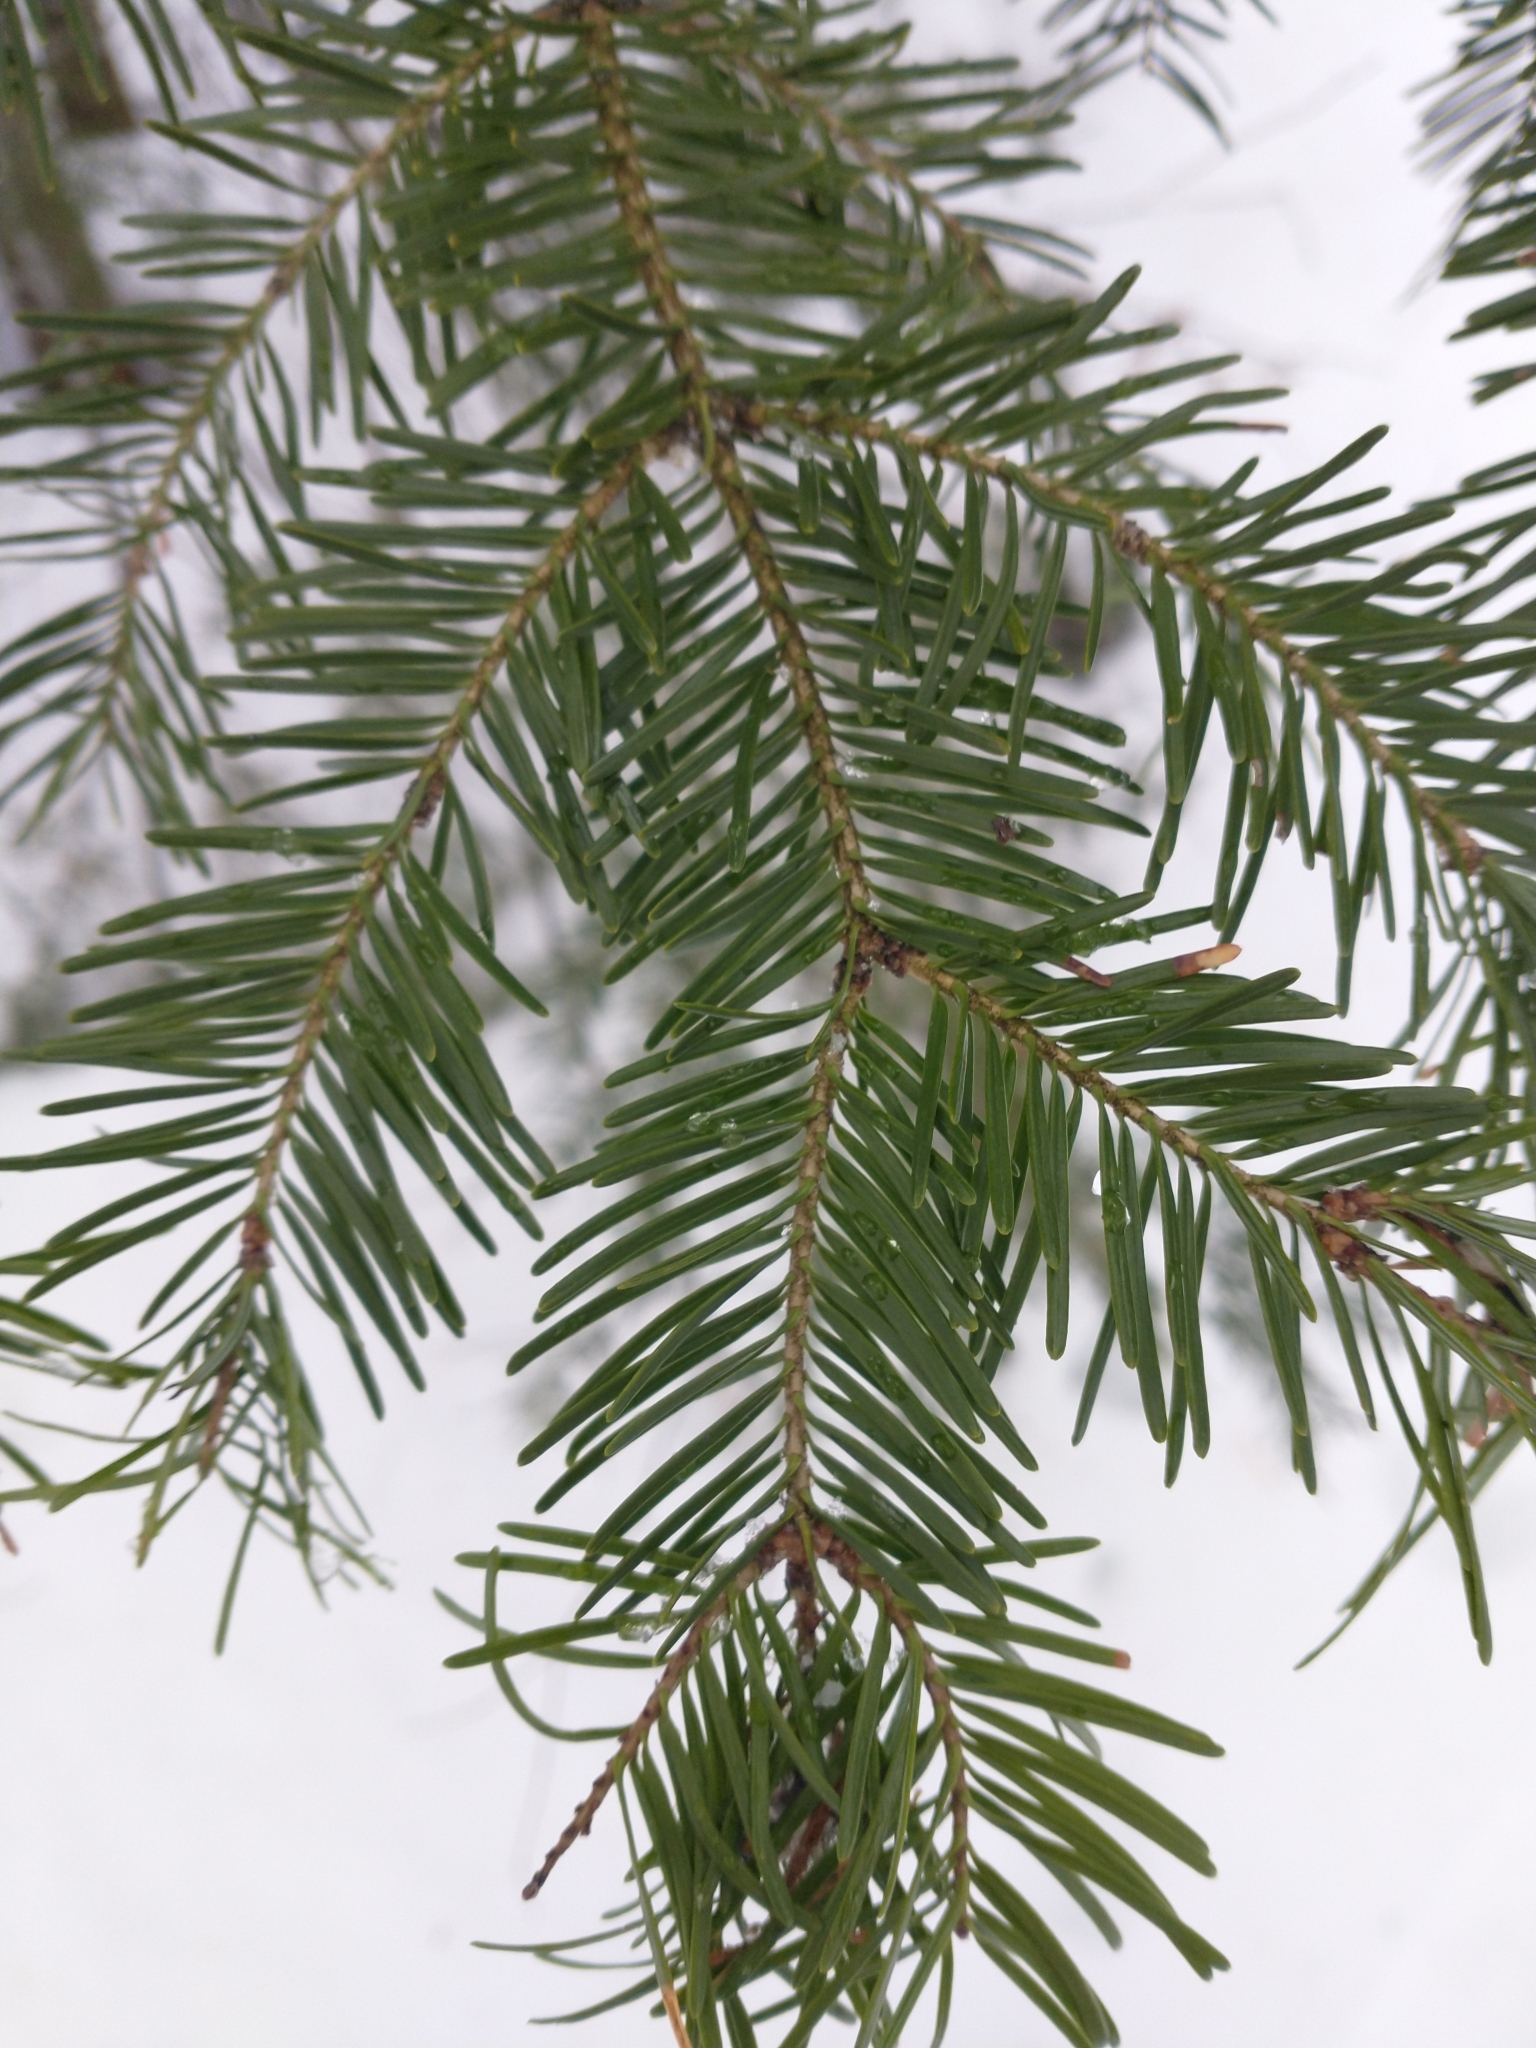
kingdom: Plantae
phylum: Tracheophyta
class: Pinopsida
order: Pinales
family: Pinaceae
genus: Abies
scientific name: Abies balsamea
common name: Balsam fir
